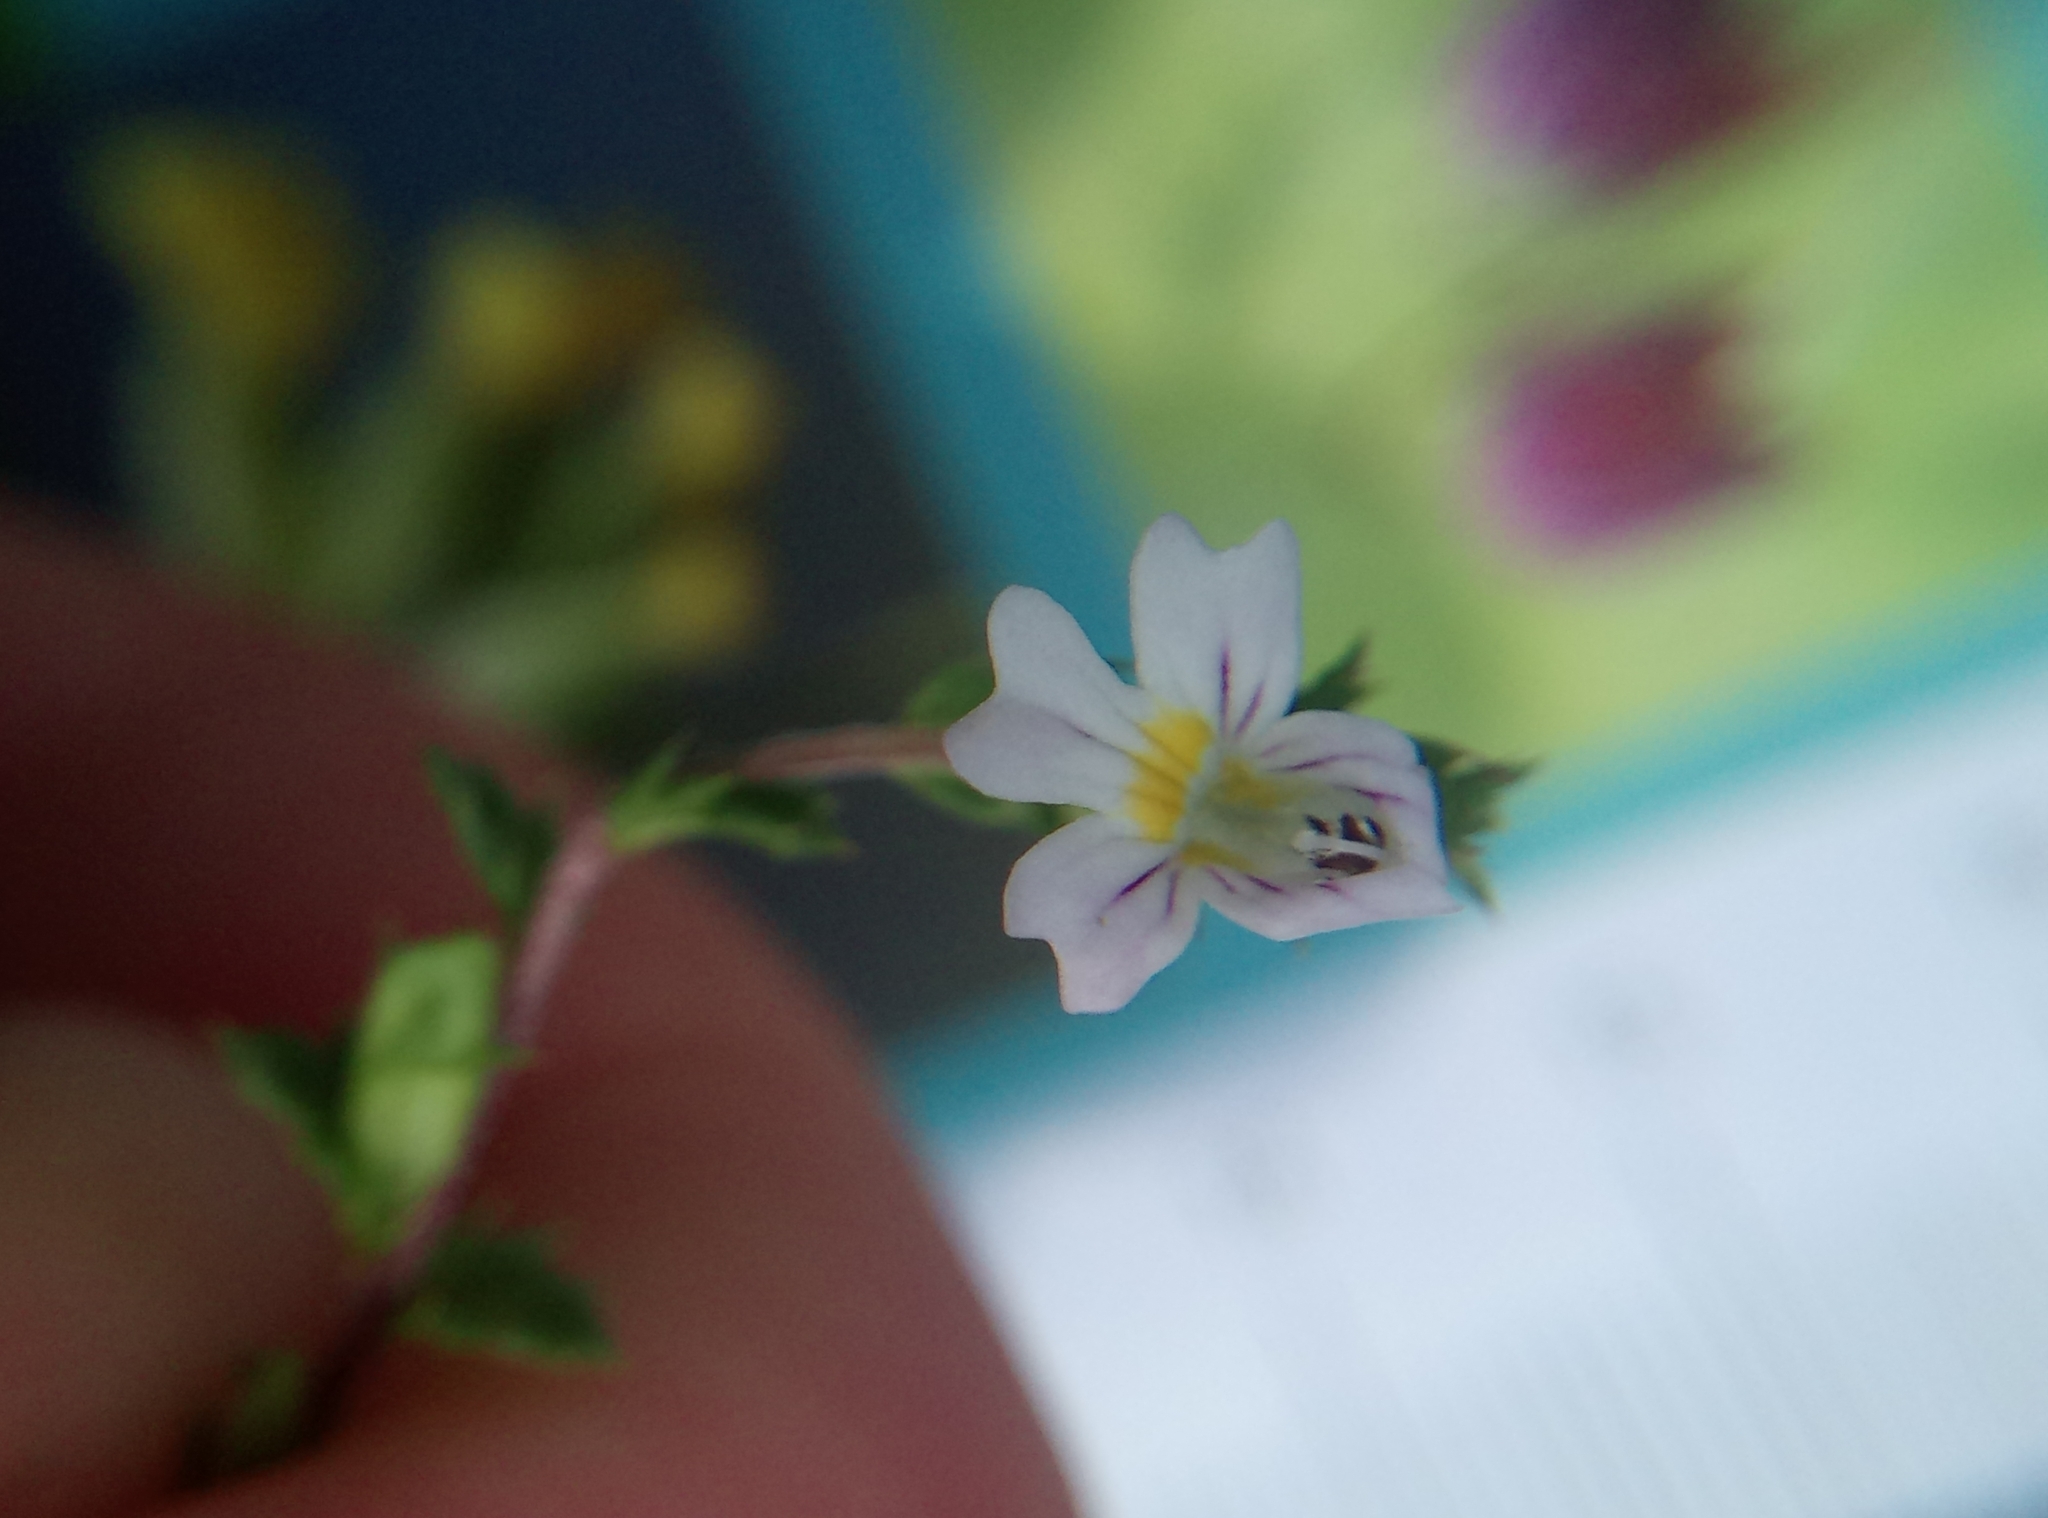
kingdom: Plantae
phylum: Tracheophyta
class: Magnoliopsida
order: Lamiales
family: Orobanchaceae
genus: Euphrasia
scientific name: Euphrasia stricta
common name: Drug eyebright
